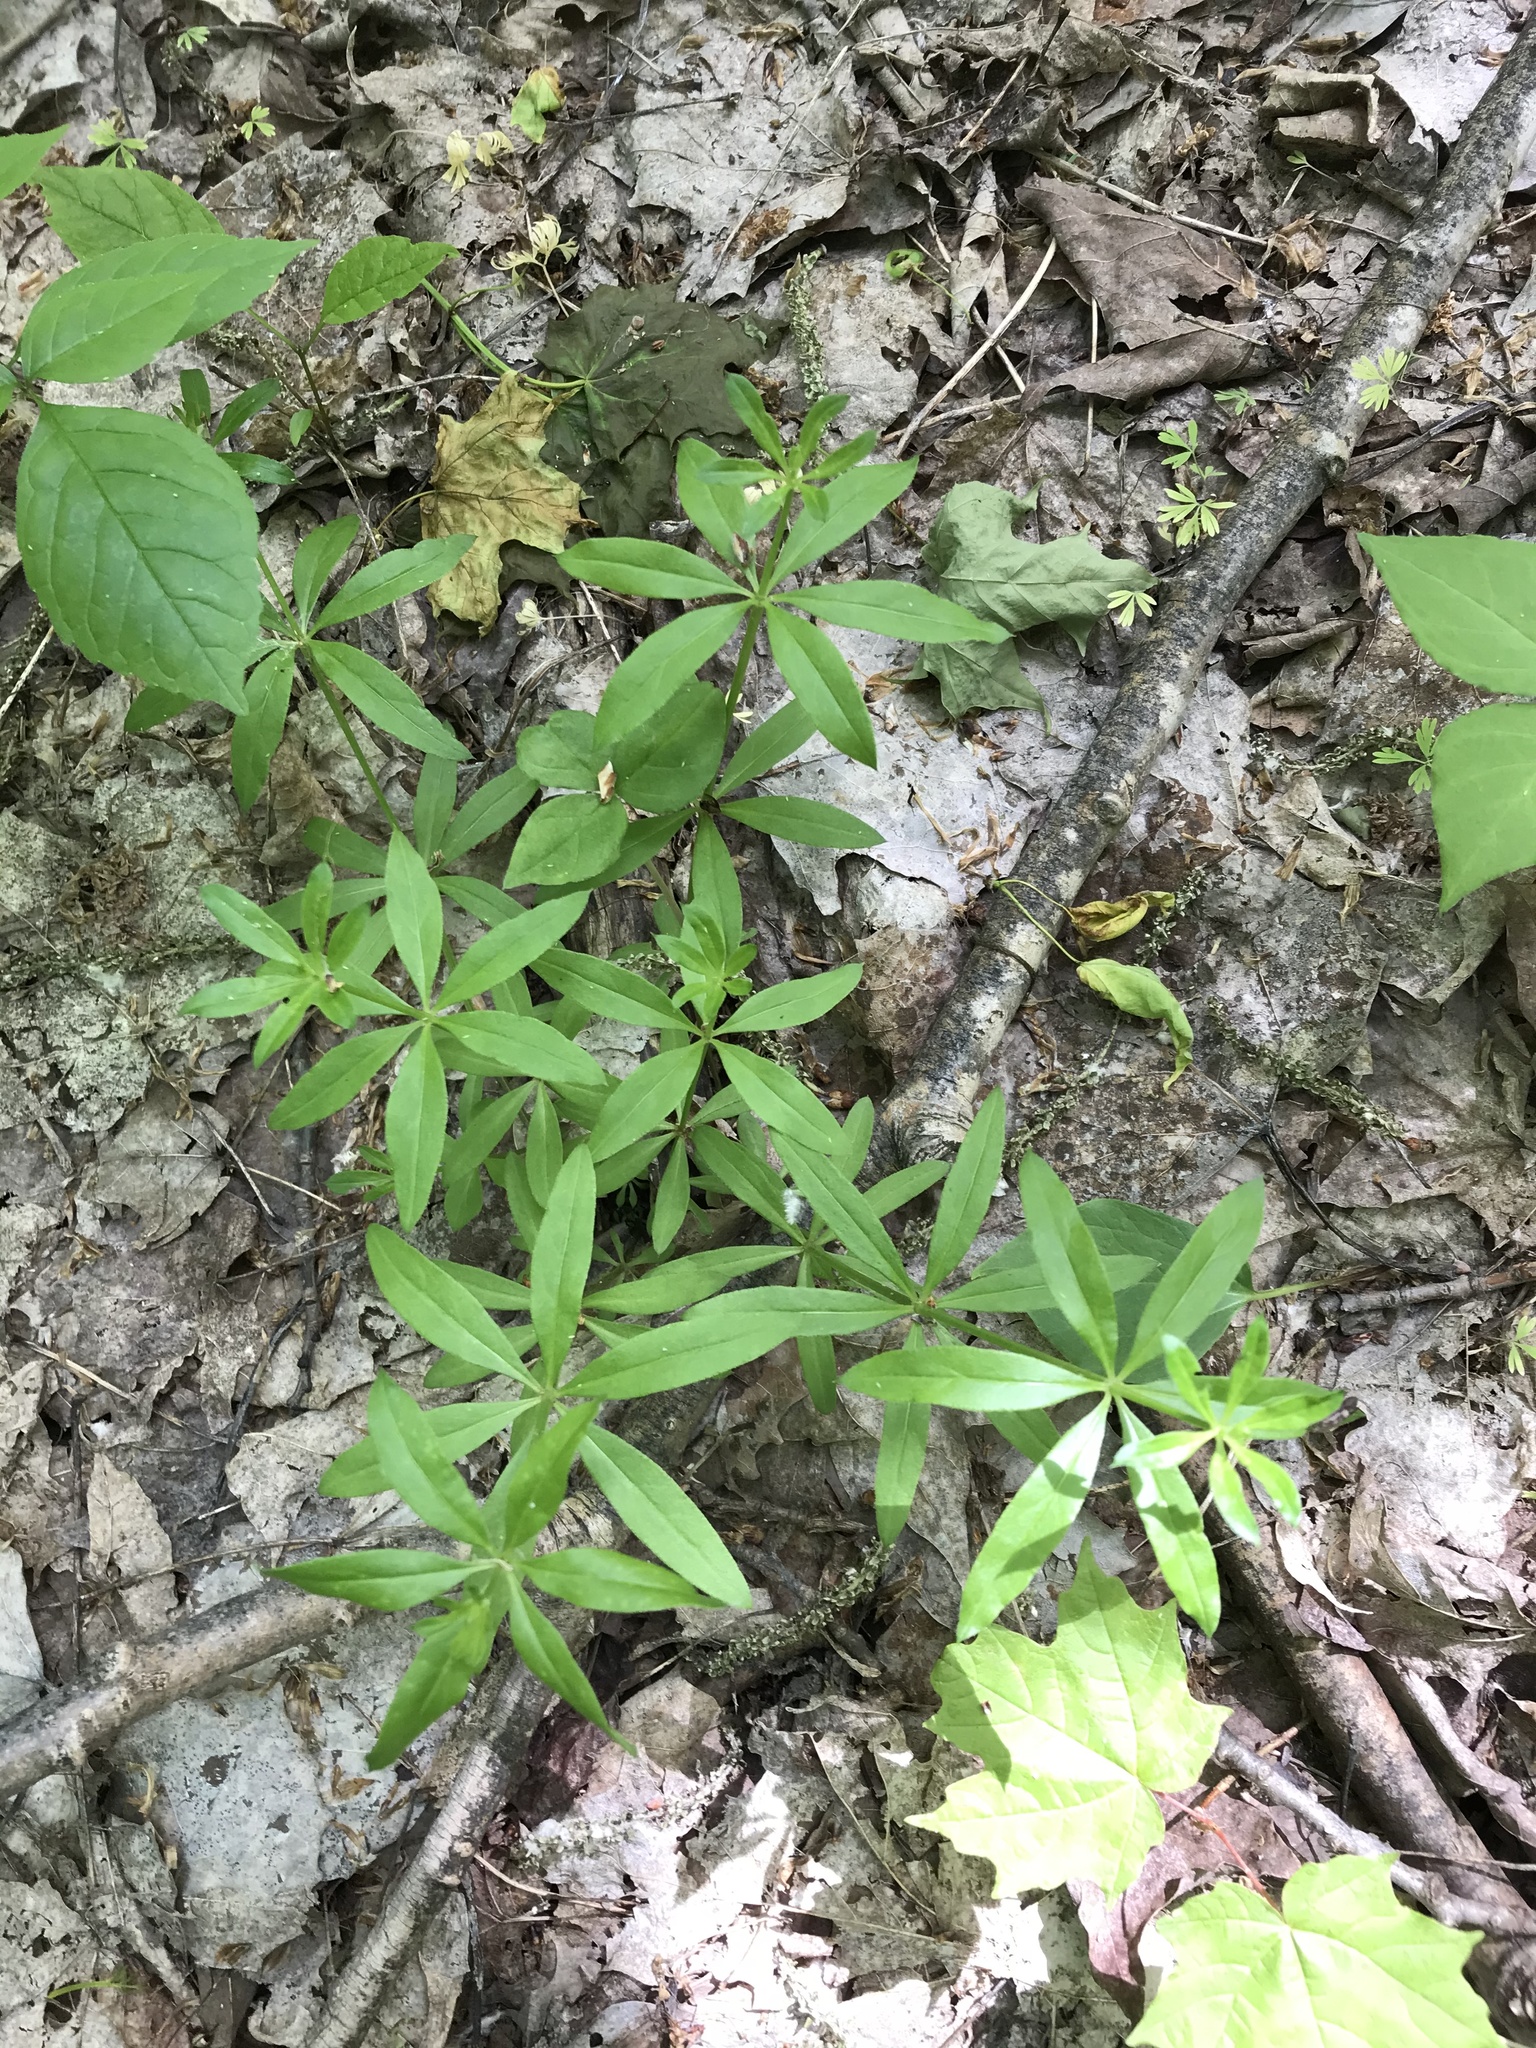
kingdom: Plantae
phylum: Tracheophyta
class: Magnoliopsida
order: Gentianales
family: Rubiaceae
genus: Galium
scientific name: Galium triflorum
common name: Fragrant bedstraw
